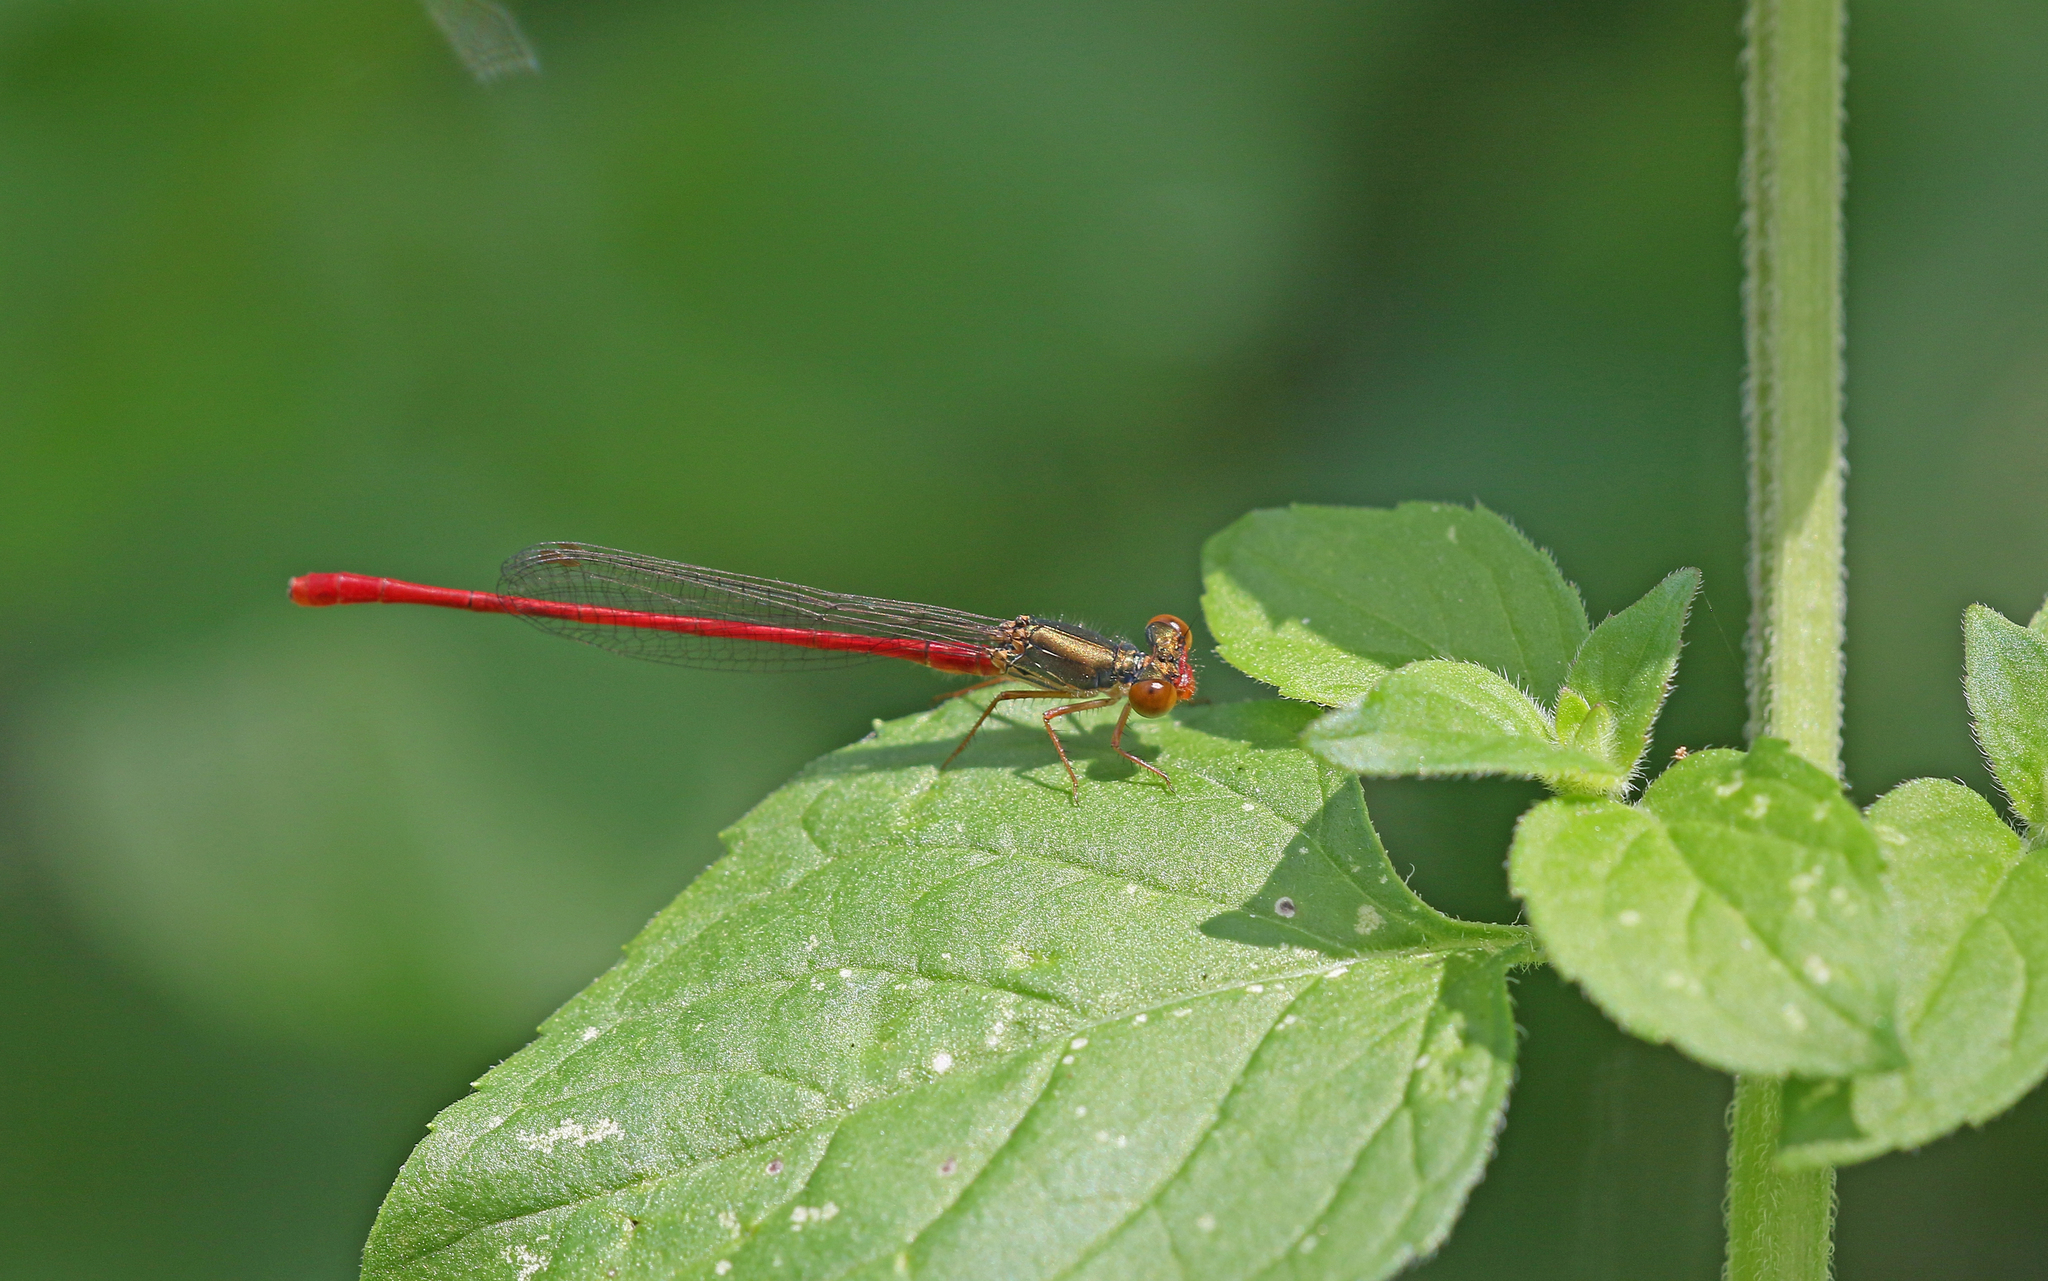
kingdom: Animalia
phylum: Arthropoda
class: Insecta
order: Odonata
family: Coenagrionidae
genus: Ceriagrion
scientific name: Ceriagrion tenellum
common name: Small red damselfly
